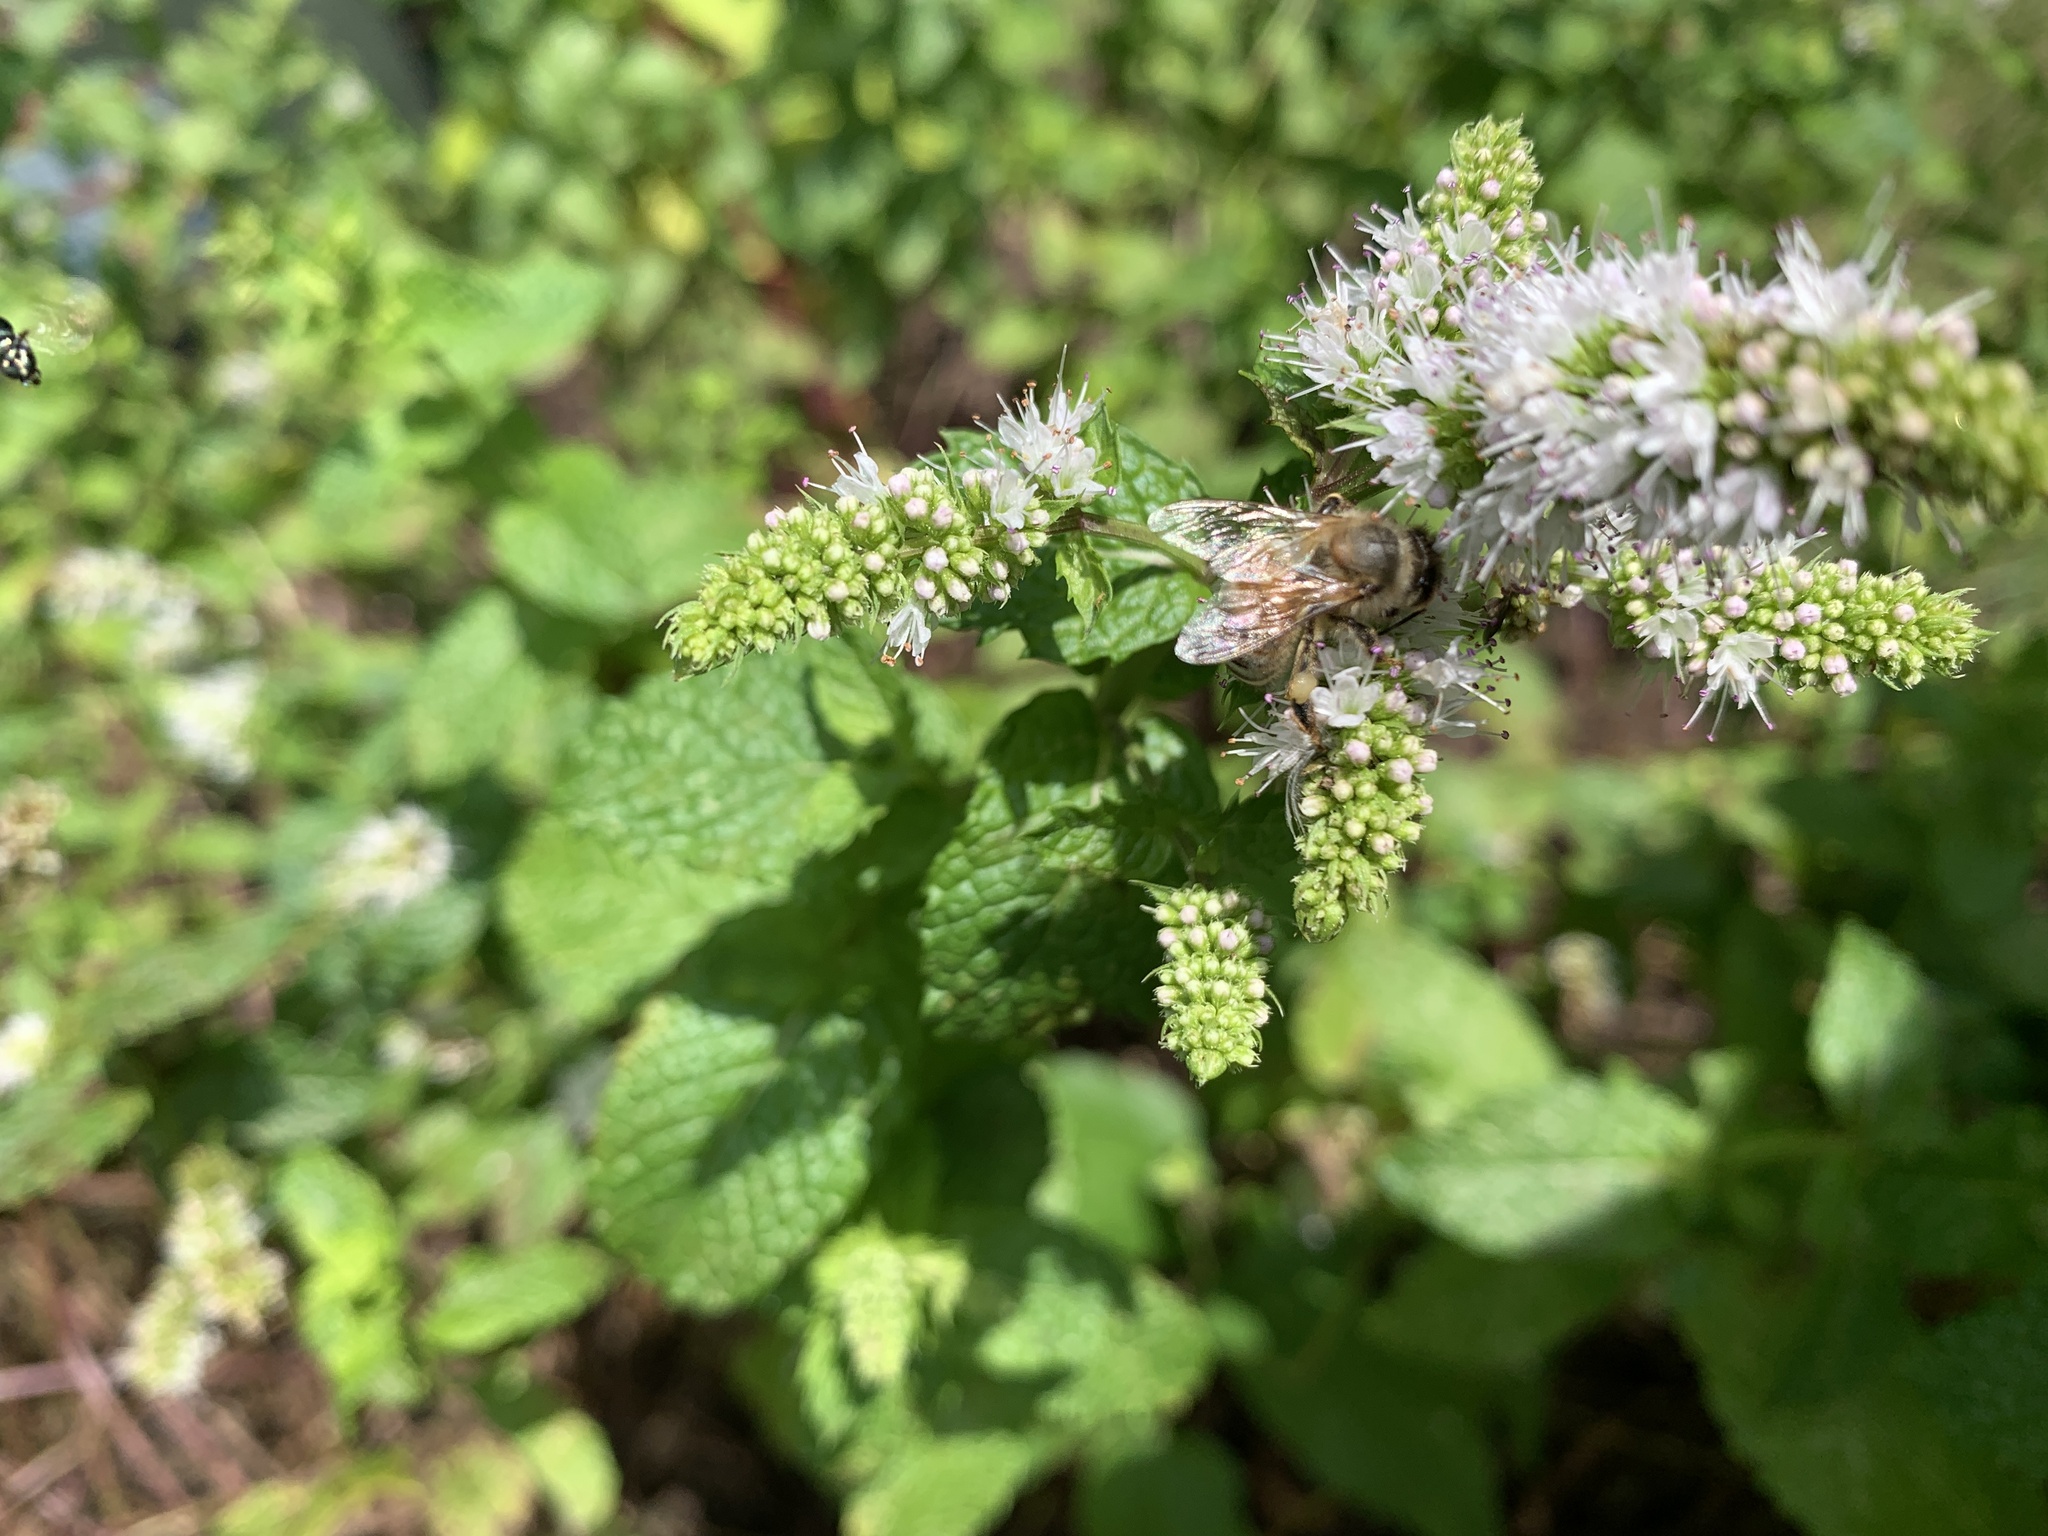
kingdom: Animalia
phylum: Arthropoda
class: Insecta
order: Hymenoptera
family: Apidae
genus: Apis
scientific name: Apis mellifera
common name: Honey bee
